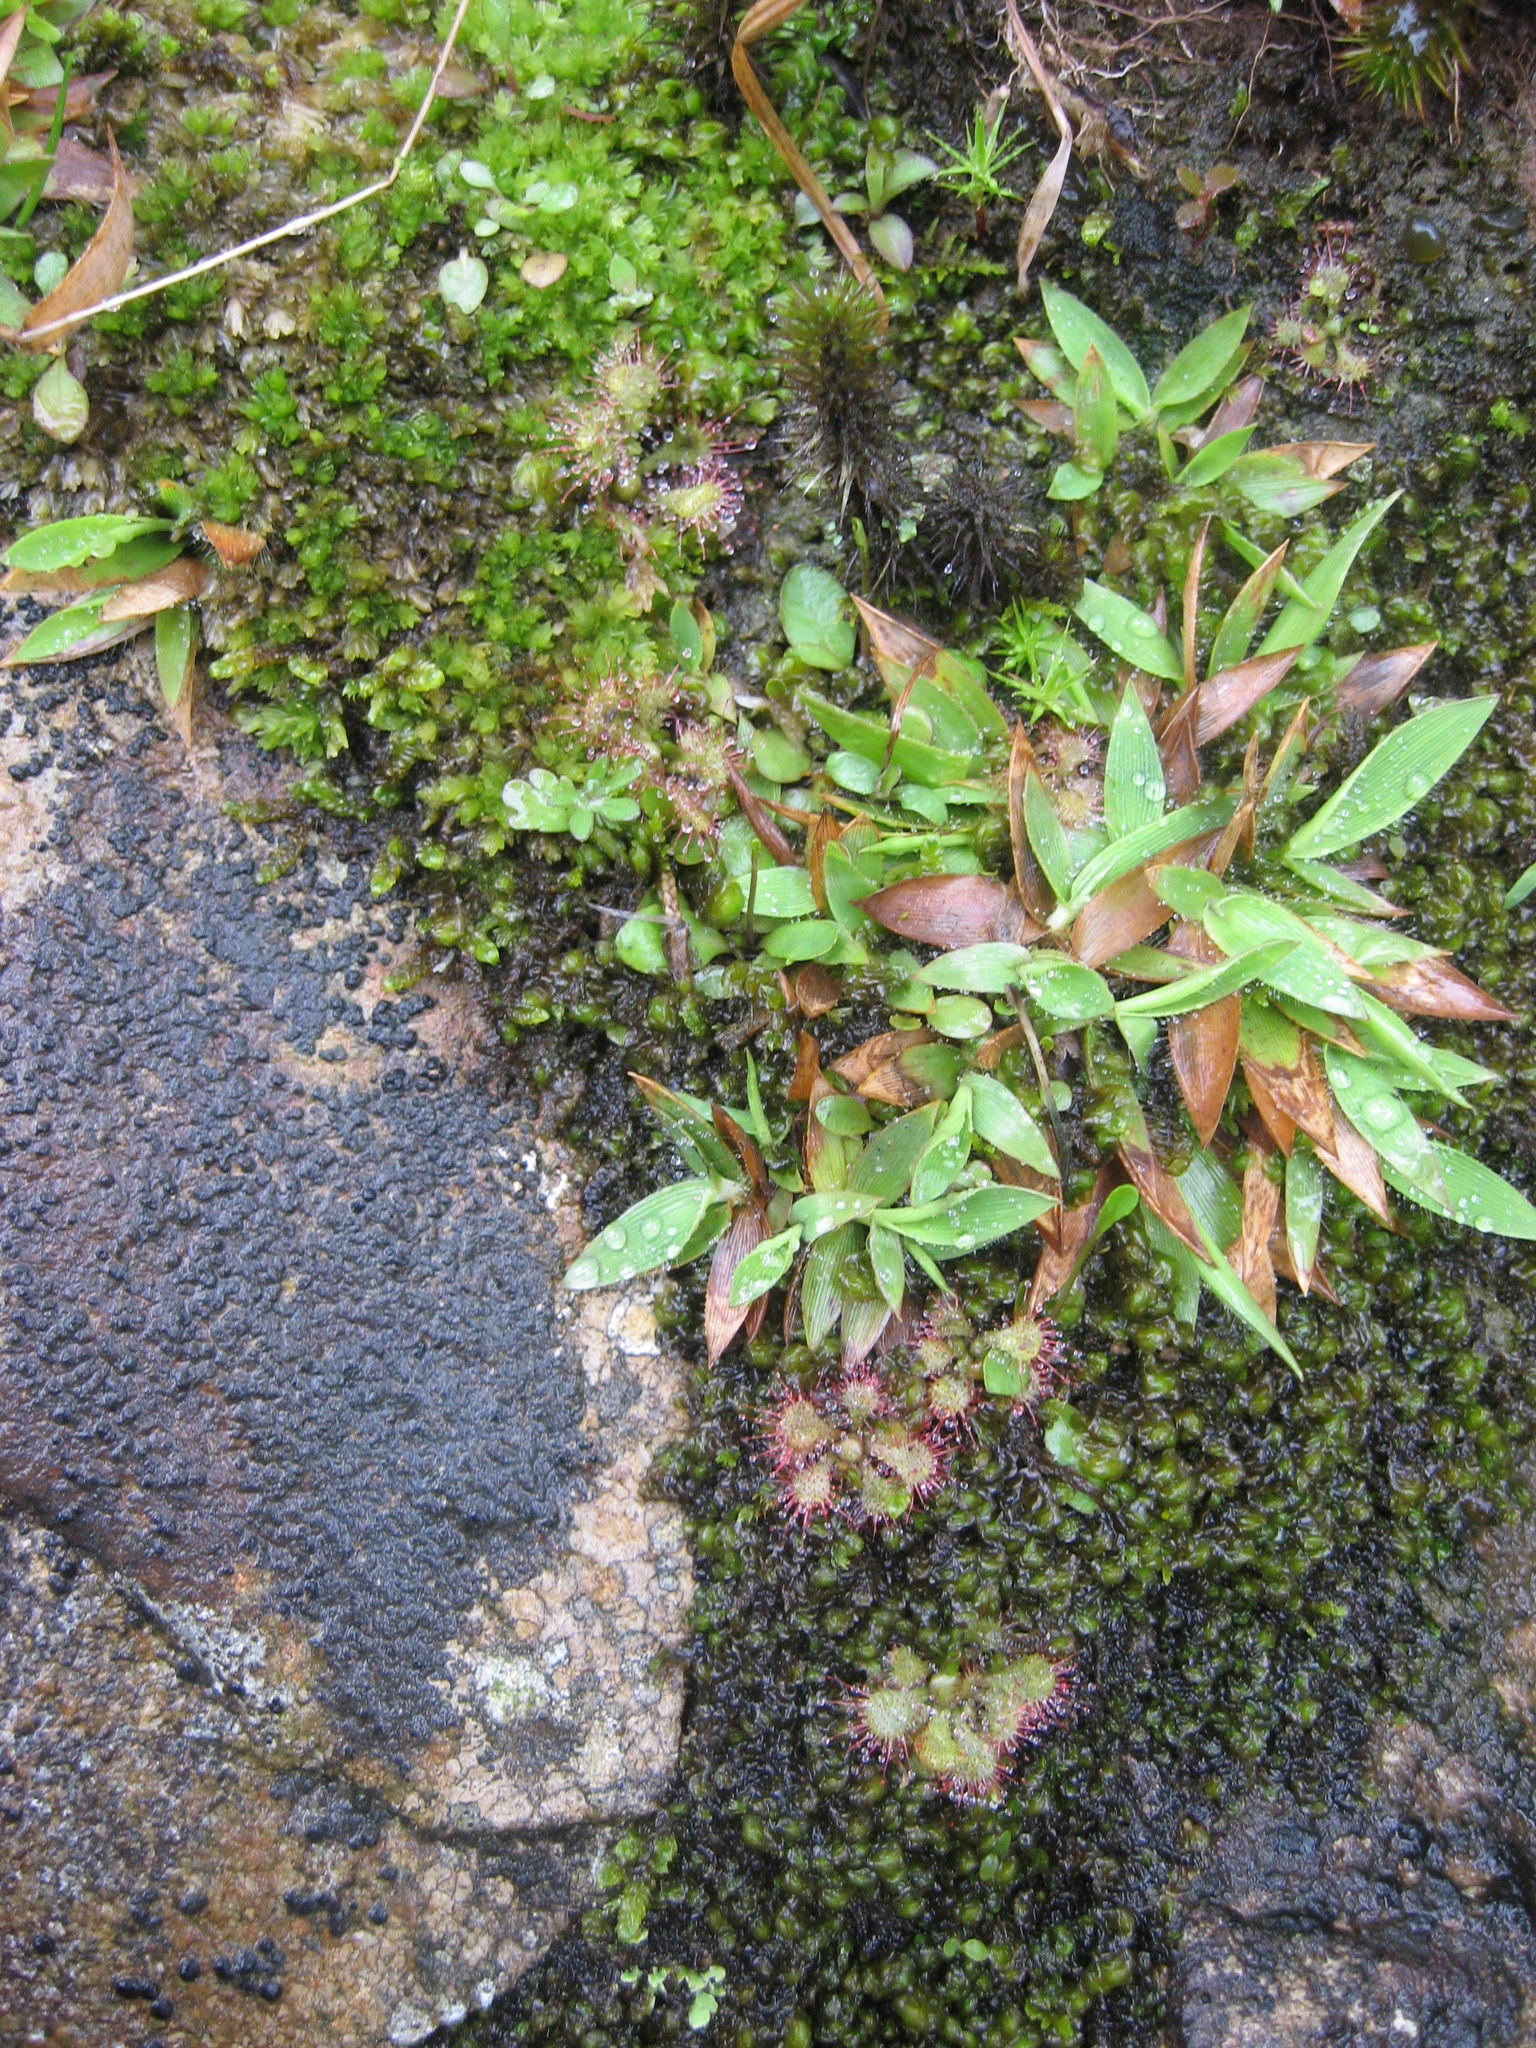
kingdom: Plantae
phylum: Tracheophyta
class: Liliopsida
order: Poales
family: Poaceae
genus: Dichanthelium
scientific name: Dichanthelium strigosum
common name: Cushion-tuft panic grass
